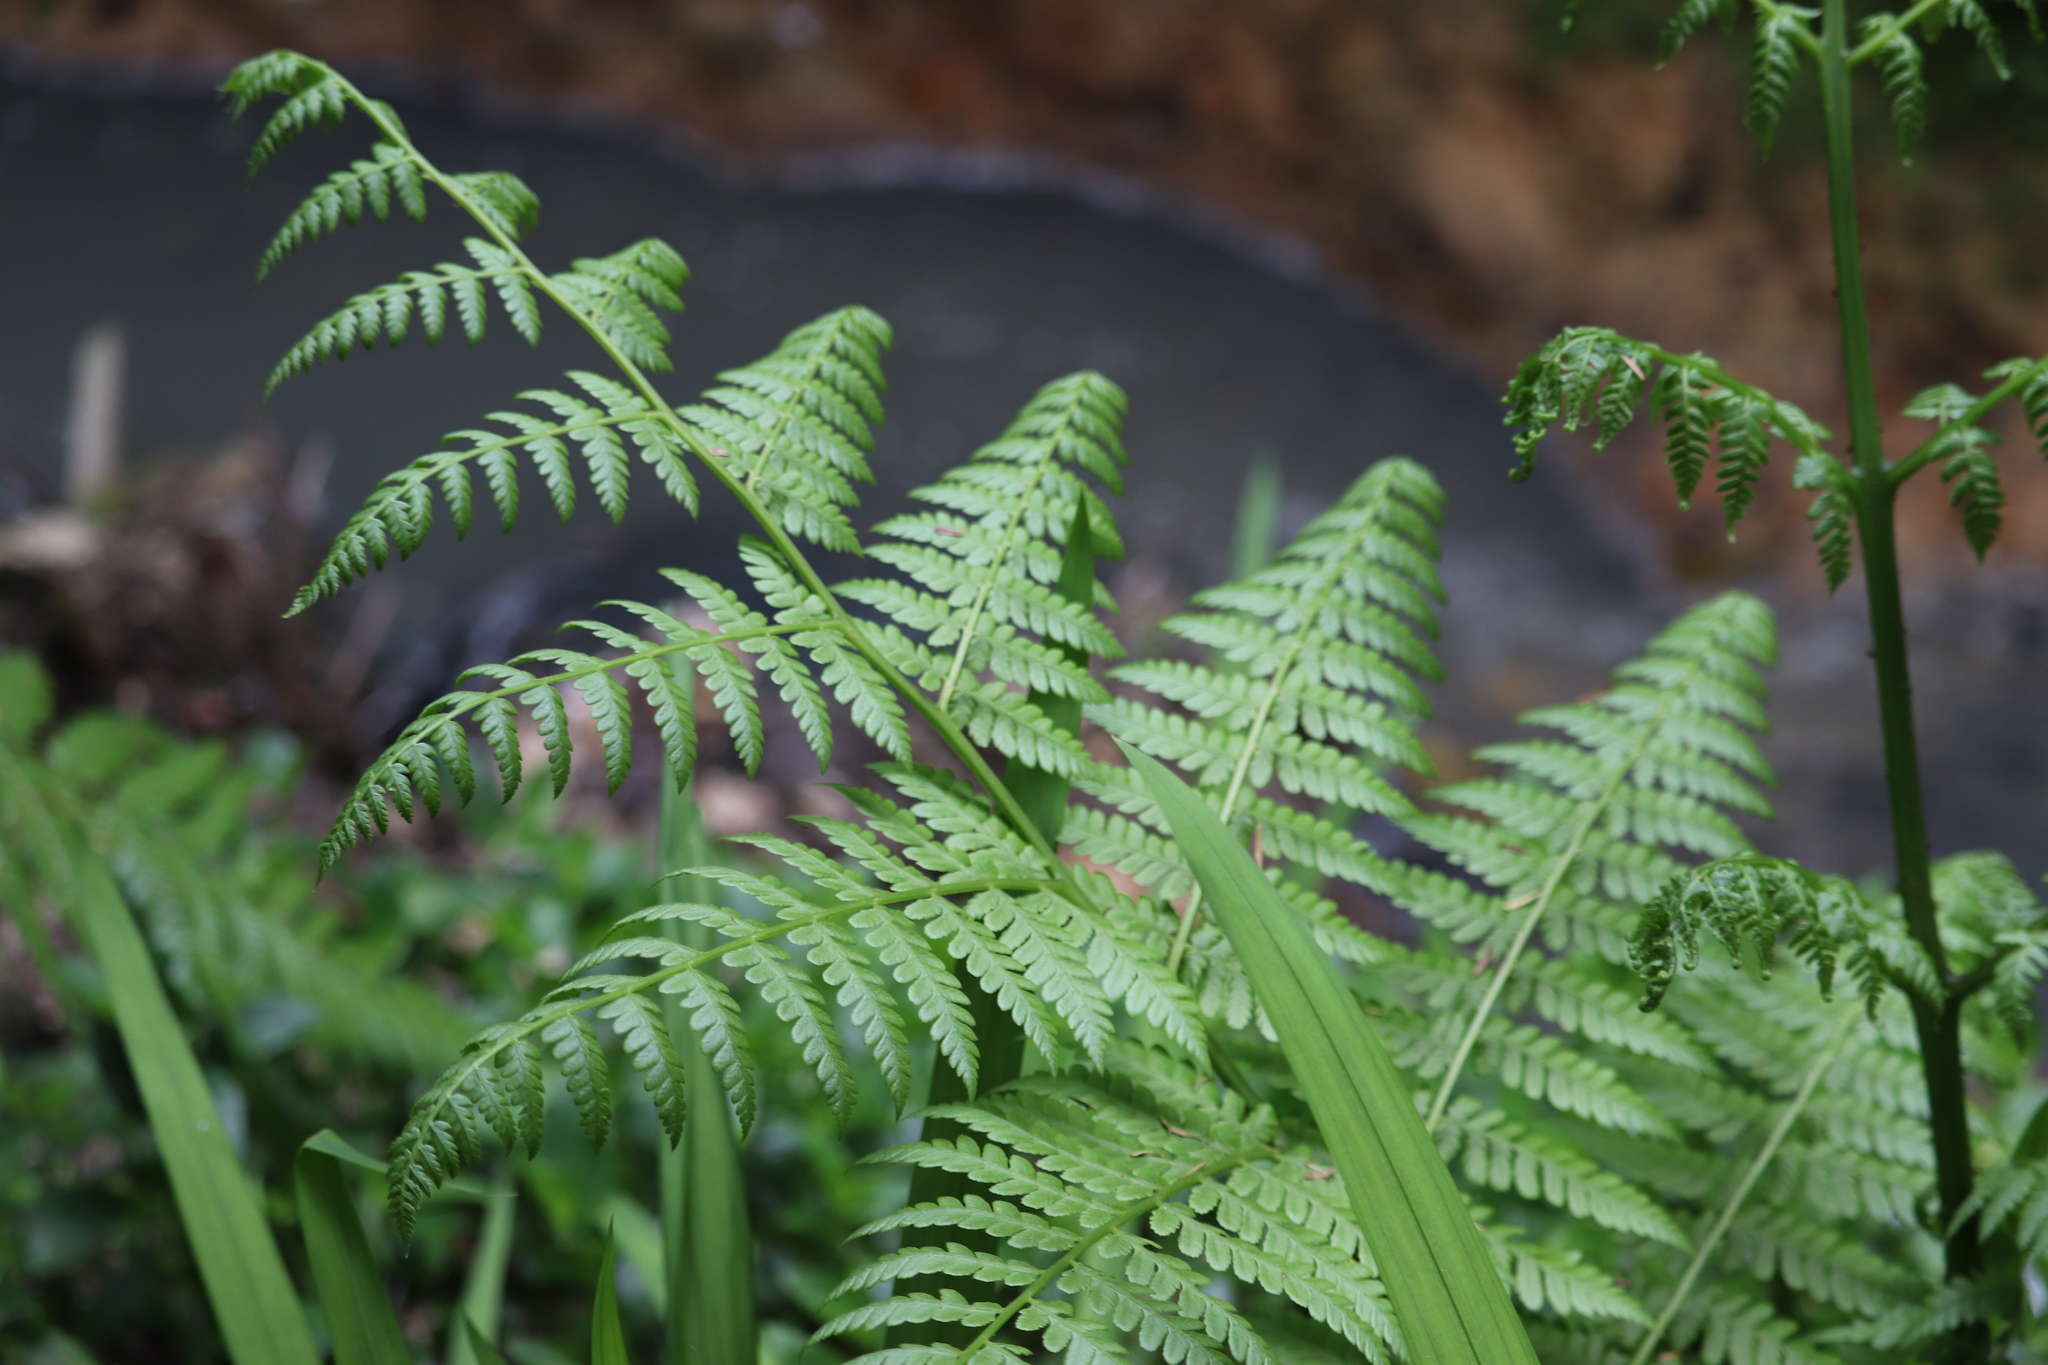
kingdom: Plantae
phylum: Tracheophyta
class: Polypodiopsida
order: Polypodiales
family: Athyriaceae
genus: Diplazium
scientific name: Diplazium australe
